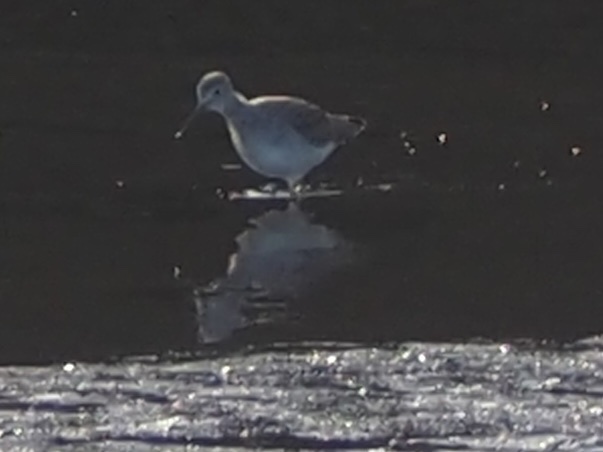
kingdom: Animalia
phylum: Chordata
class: Aves
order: Charadriiformes
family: Scolopacidae
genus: Tringa
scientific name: Tringa melanoleuca
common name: Greater yellowlegs
